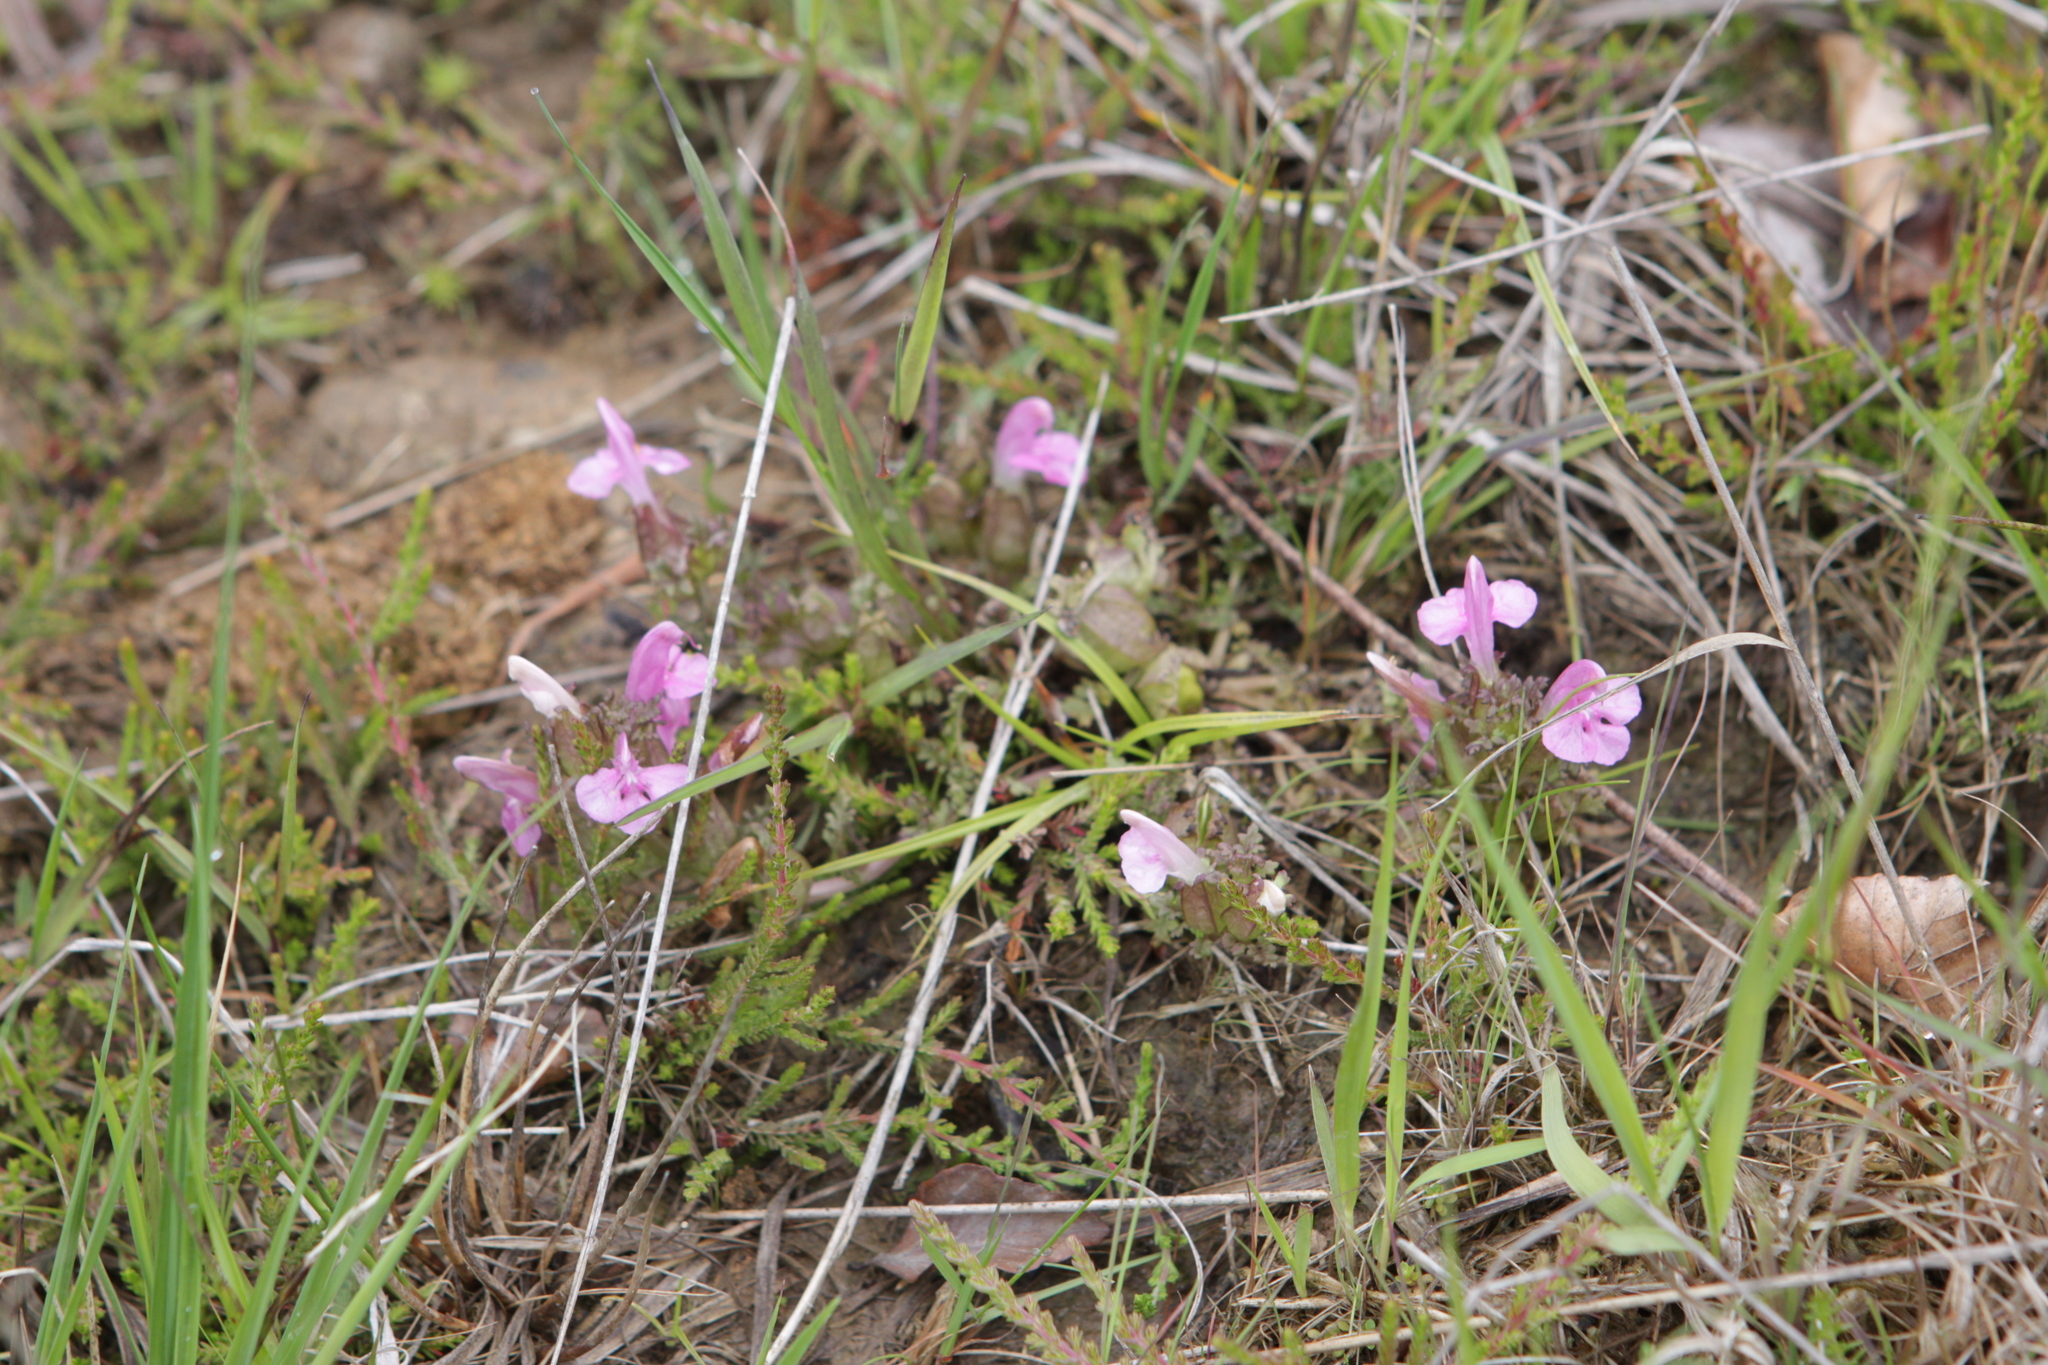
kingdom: Plantae
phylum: Tracheophyta
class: Magnoliopsida
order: Lamiales
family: Orobanchaceae
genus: Pedicularis
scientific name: Pedicularis sylvatica
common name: Lousewort
